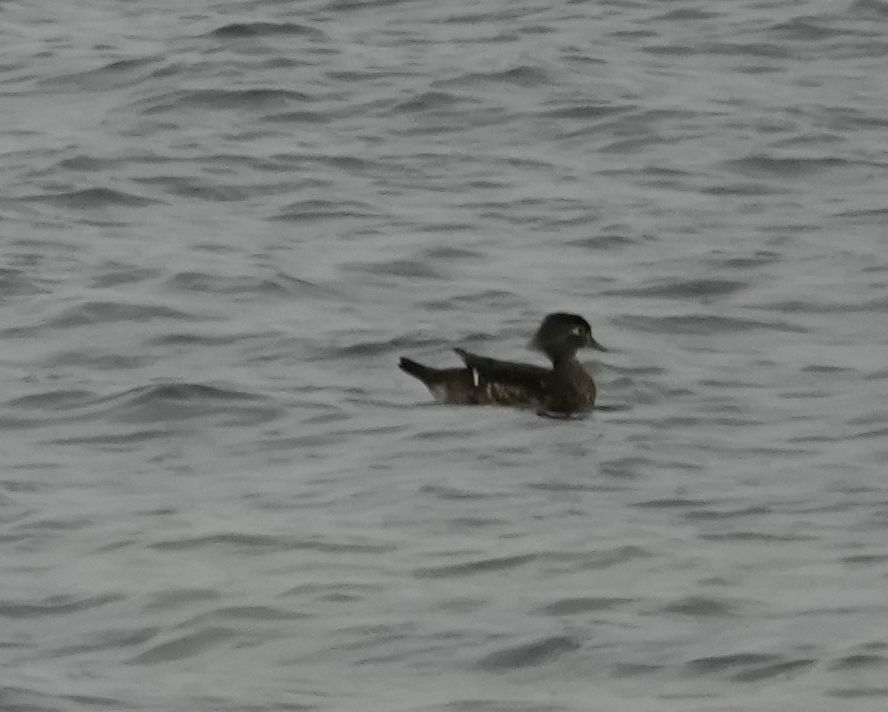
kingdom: Animalia
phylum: Chordata
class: Aves
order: Anseriformes
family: Anatidae
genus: Aix
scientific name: Aix sponsa
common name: Wood duck
